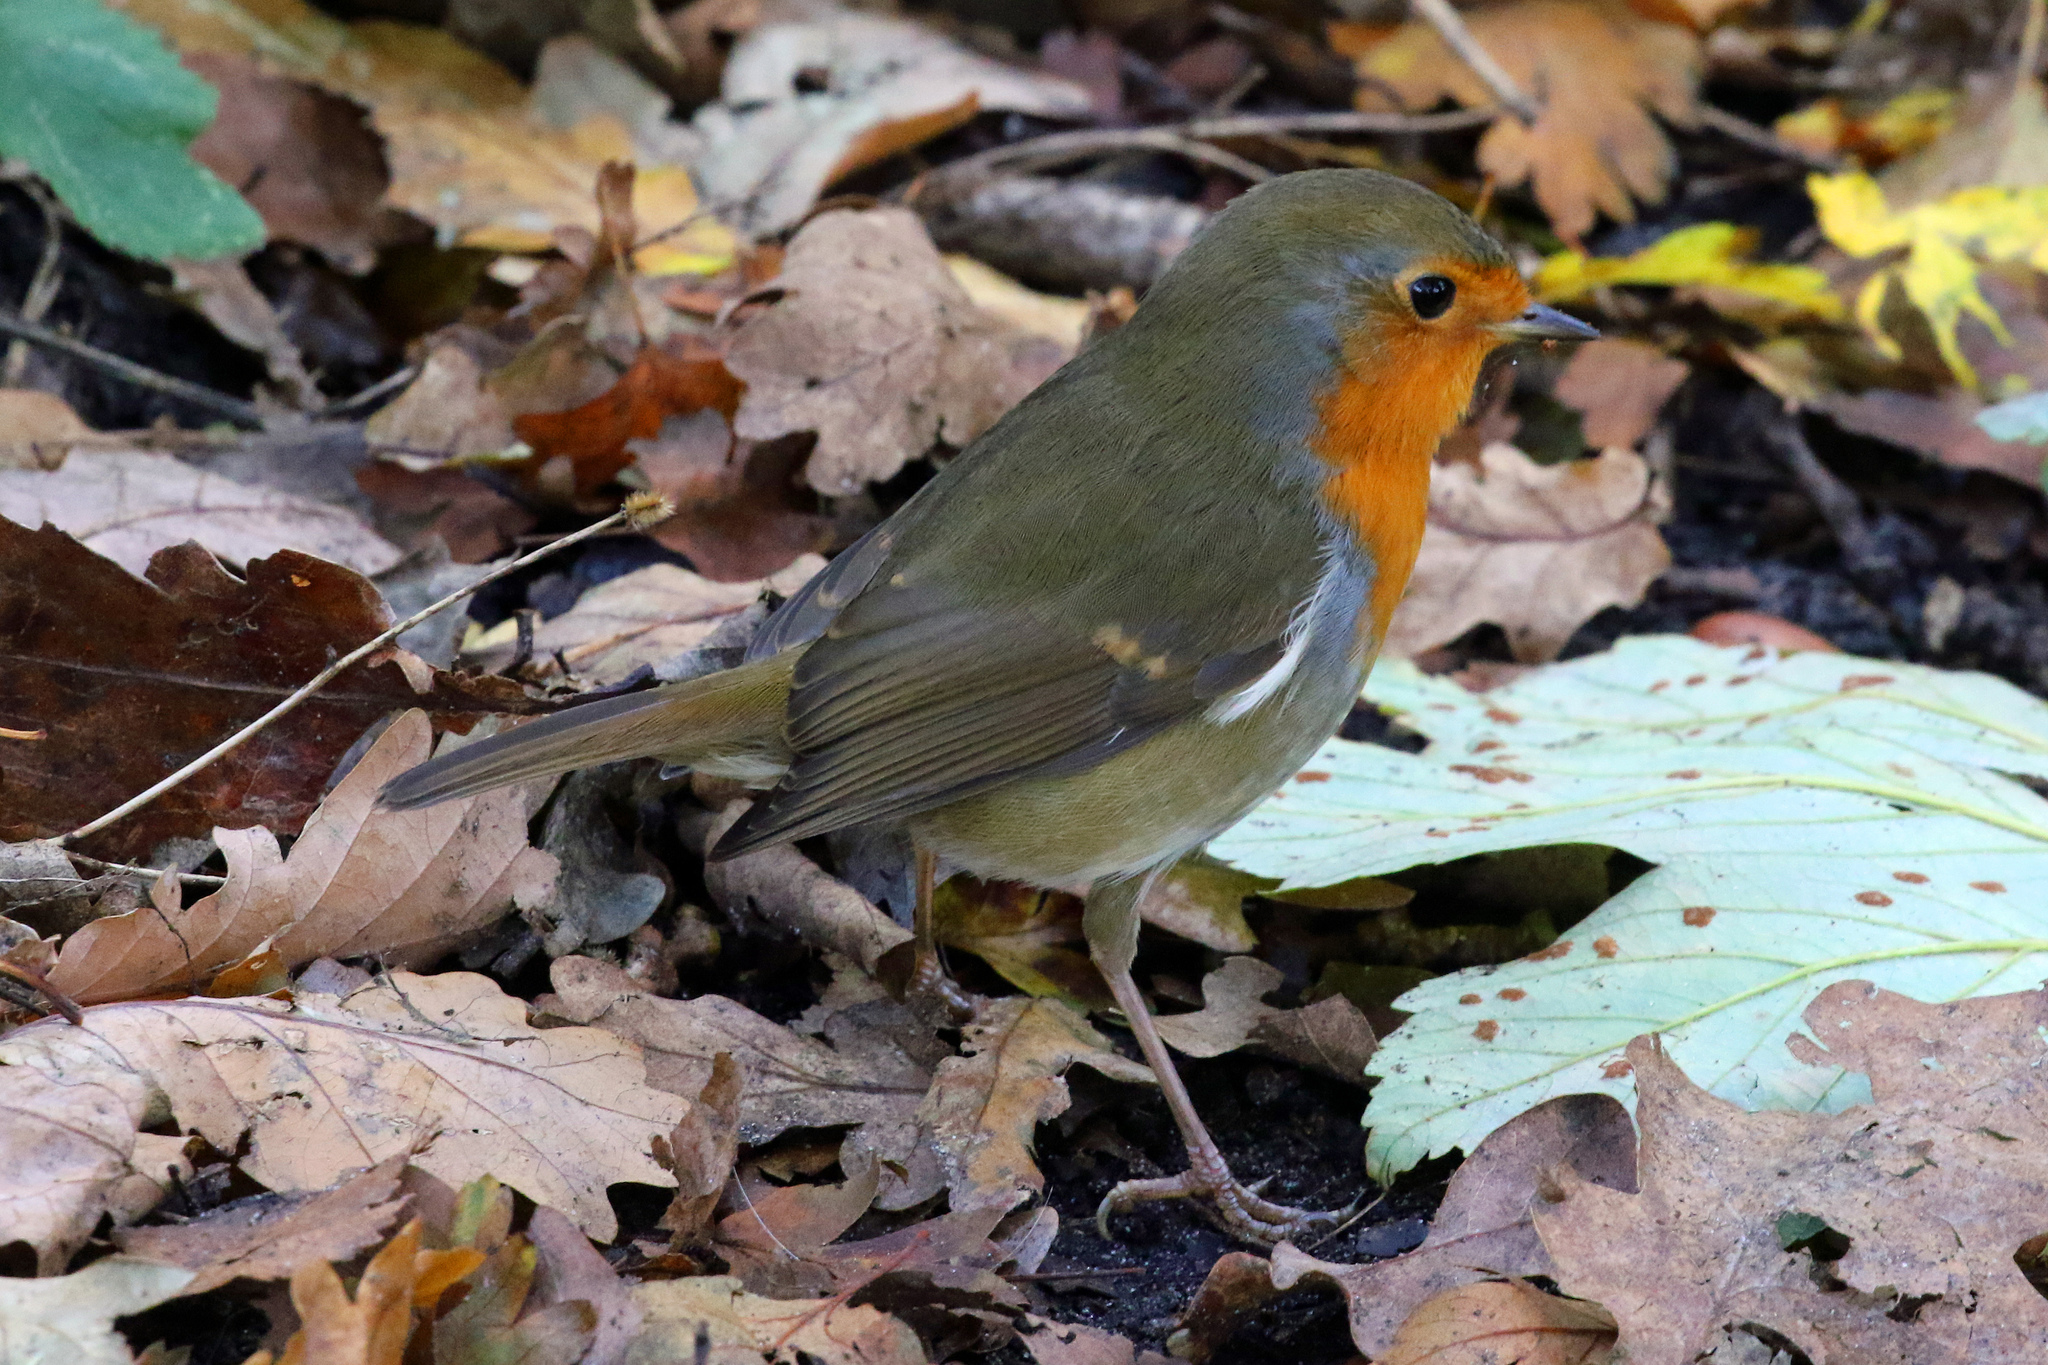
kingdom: Animalia
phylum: Chordata
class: Aves
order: Passeriformes
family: Muscicapidae
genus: Erithacus
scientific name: Erithacus rubecula
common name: European robin
